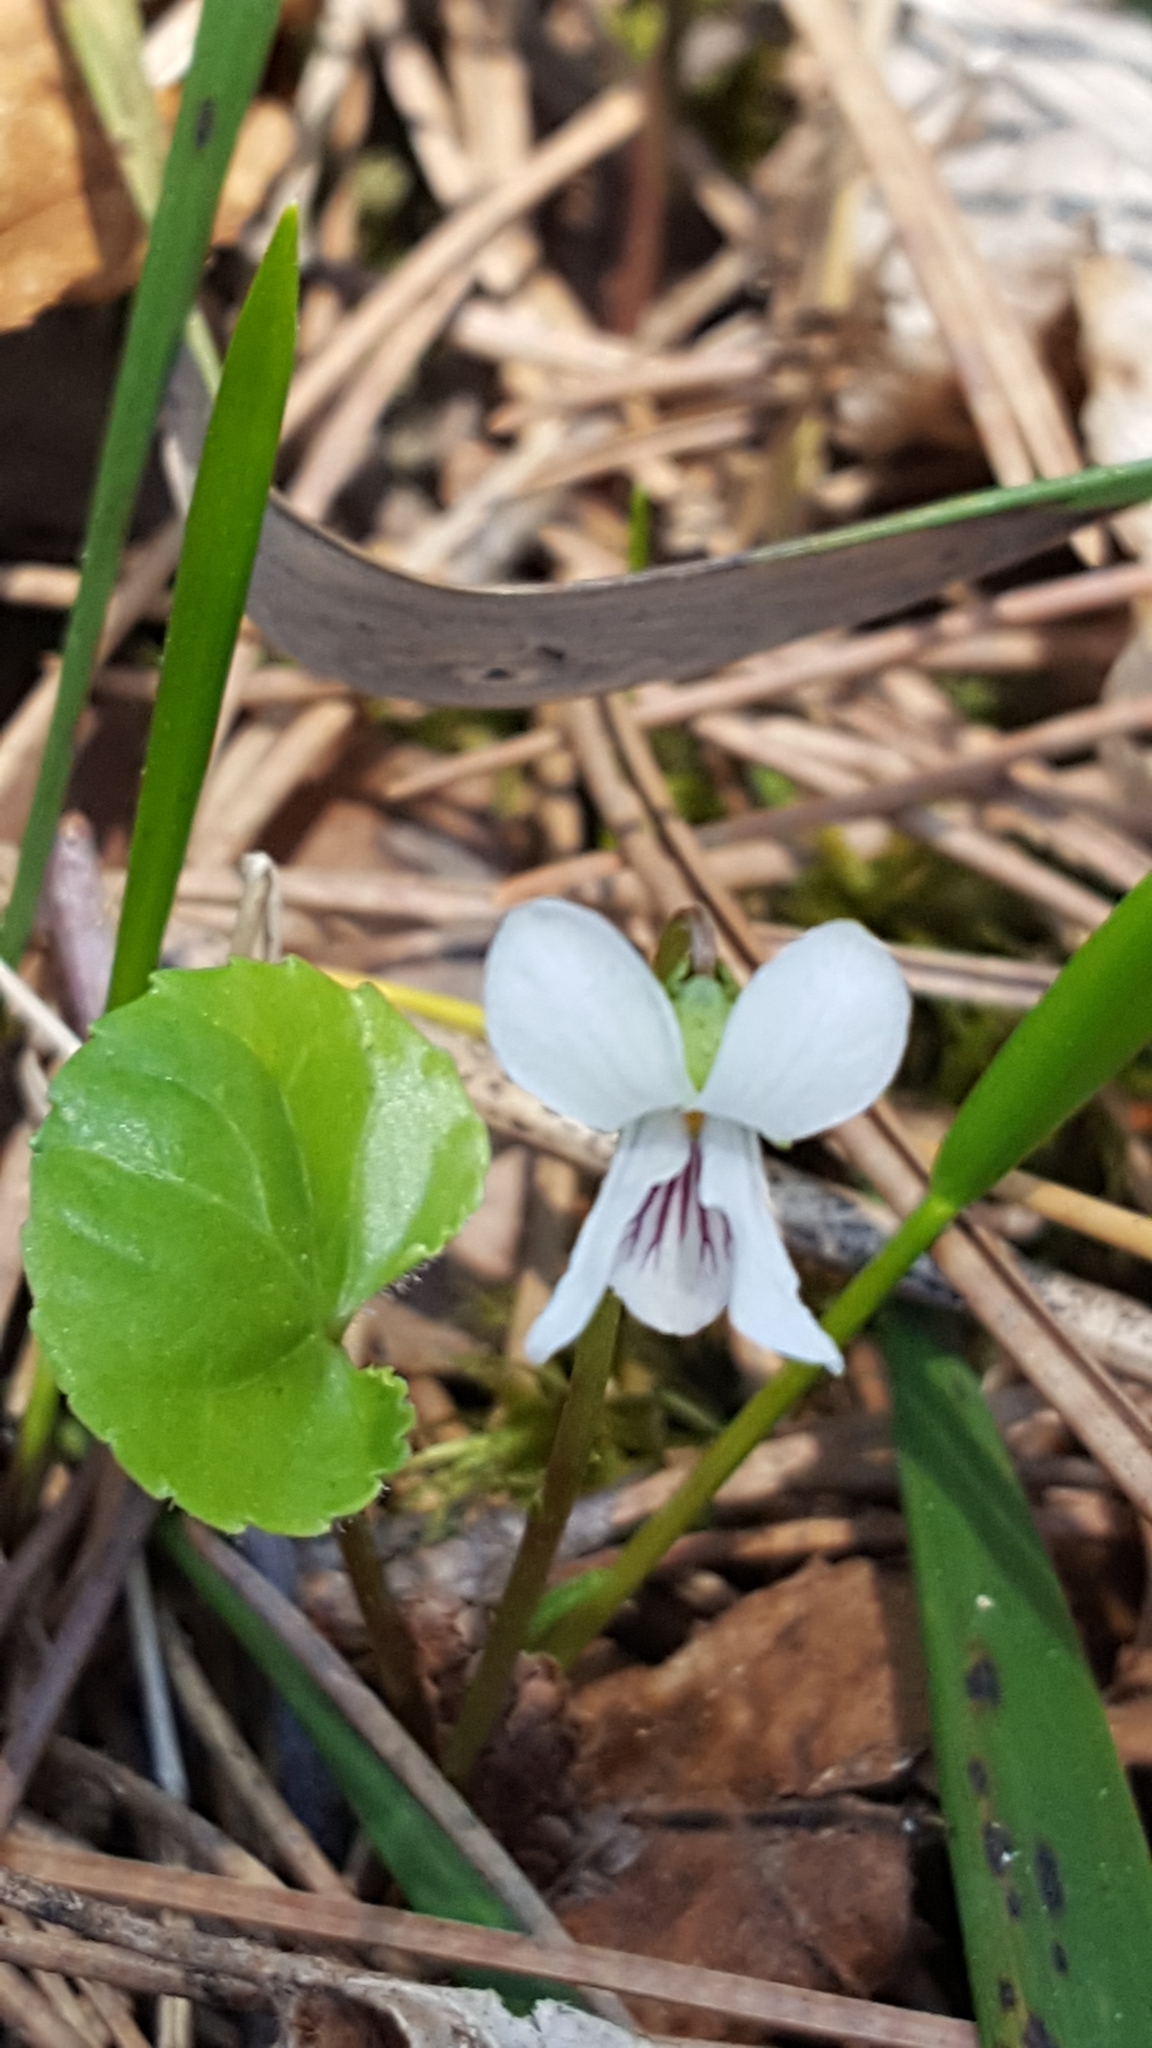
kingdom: Plantae
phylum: Tracheophyta
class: Magnoliopsida
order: Malpighiales
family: Violaceae
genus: Viola
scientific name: Viola minuscula
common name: Northern white violet
